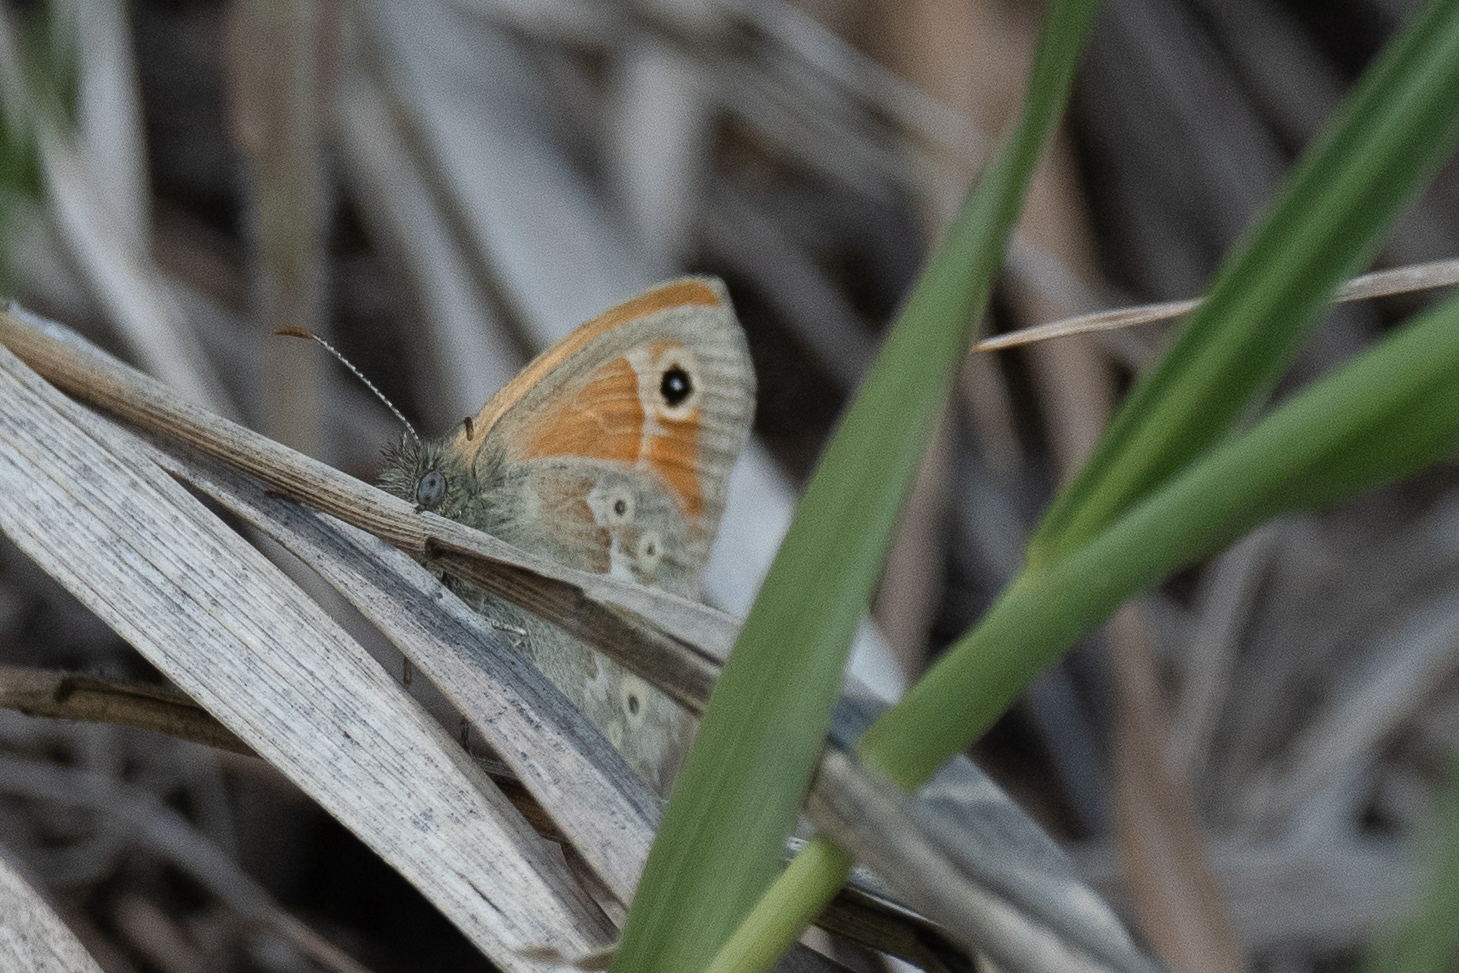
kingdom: Animalia
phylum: Arthropoda
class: Insecta
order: Lepidoptera
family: Nymphalidae
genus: Coenonympha
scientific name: Coenonympha california
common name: Common ringlet
